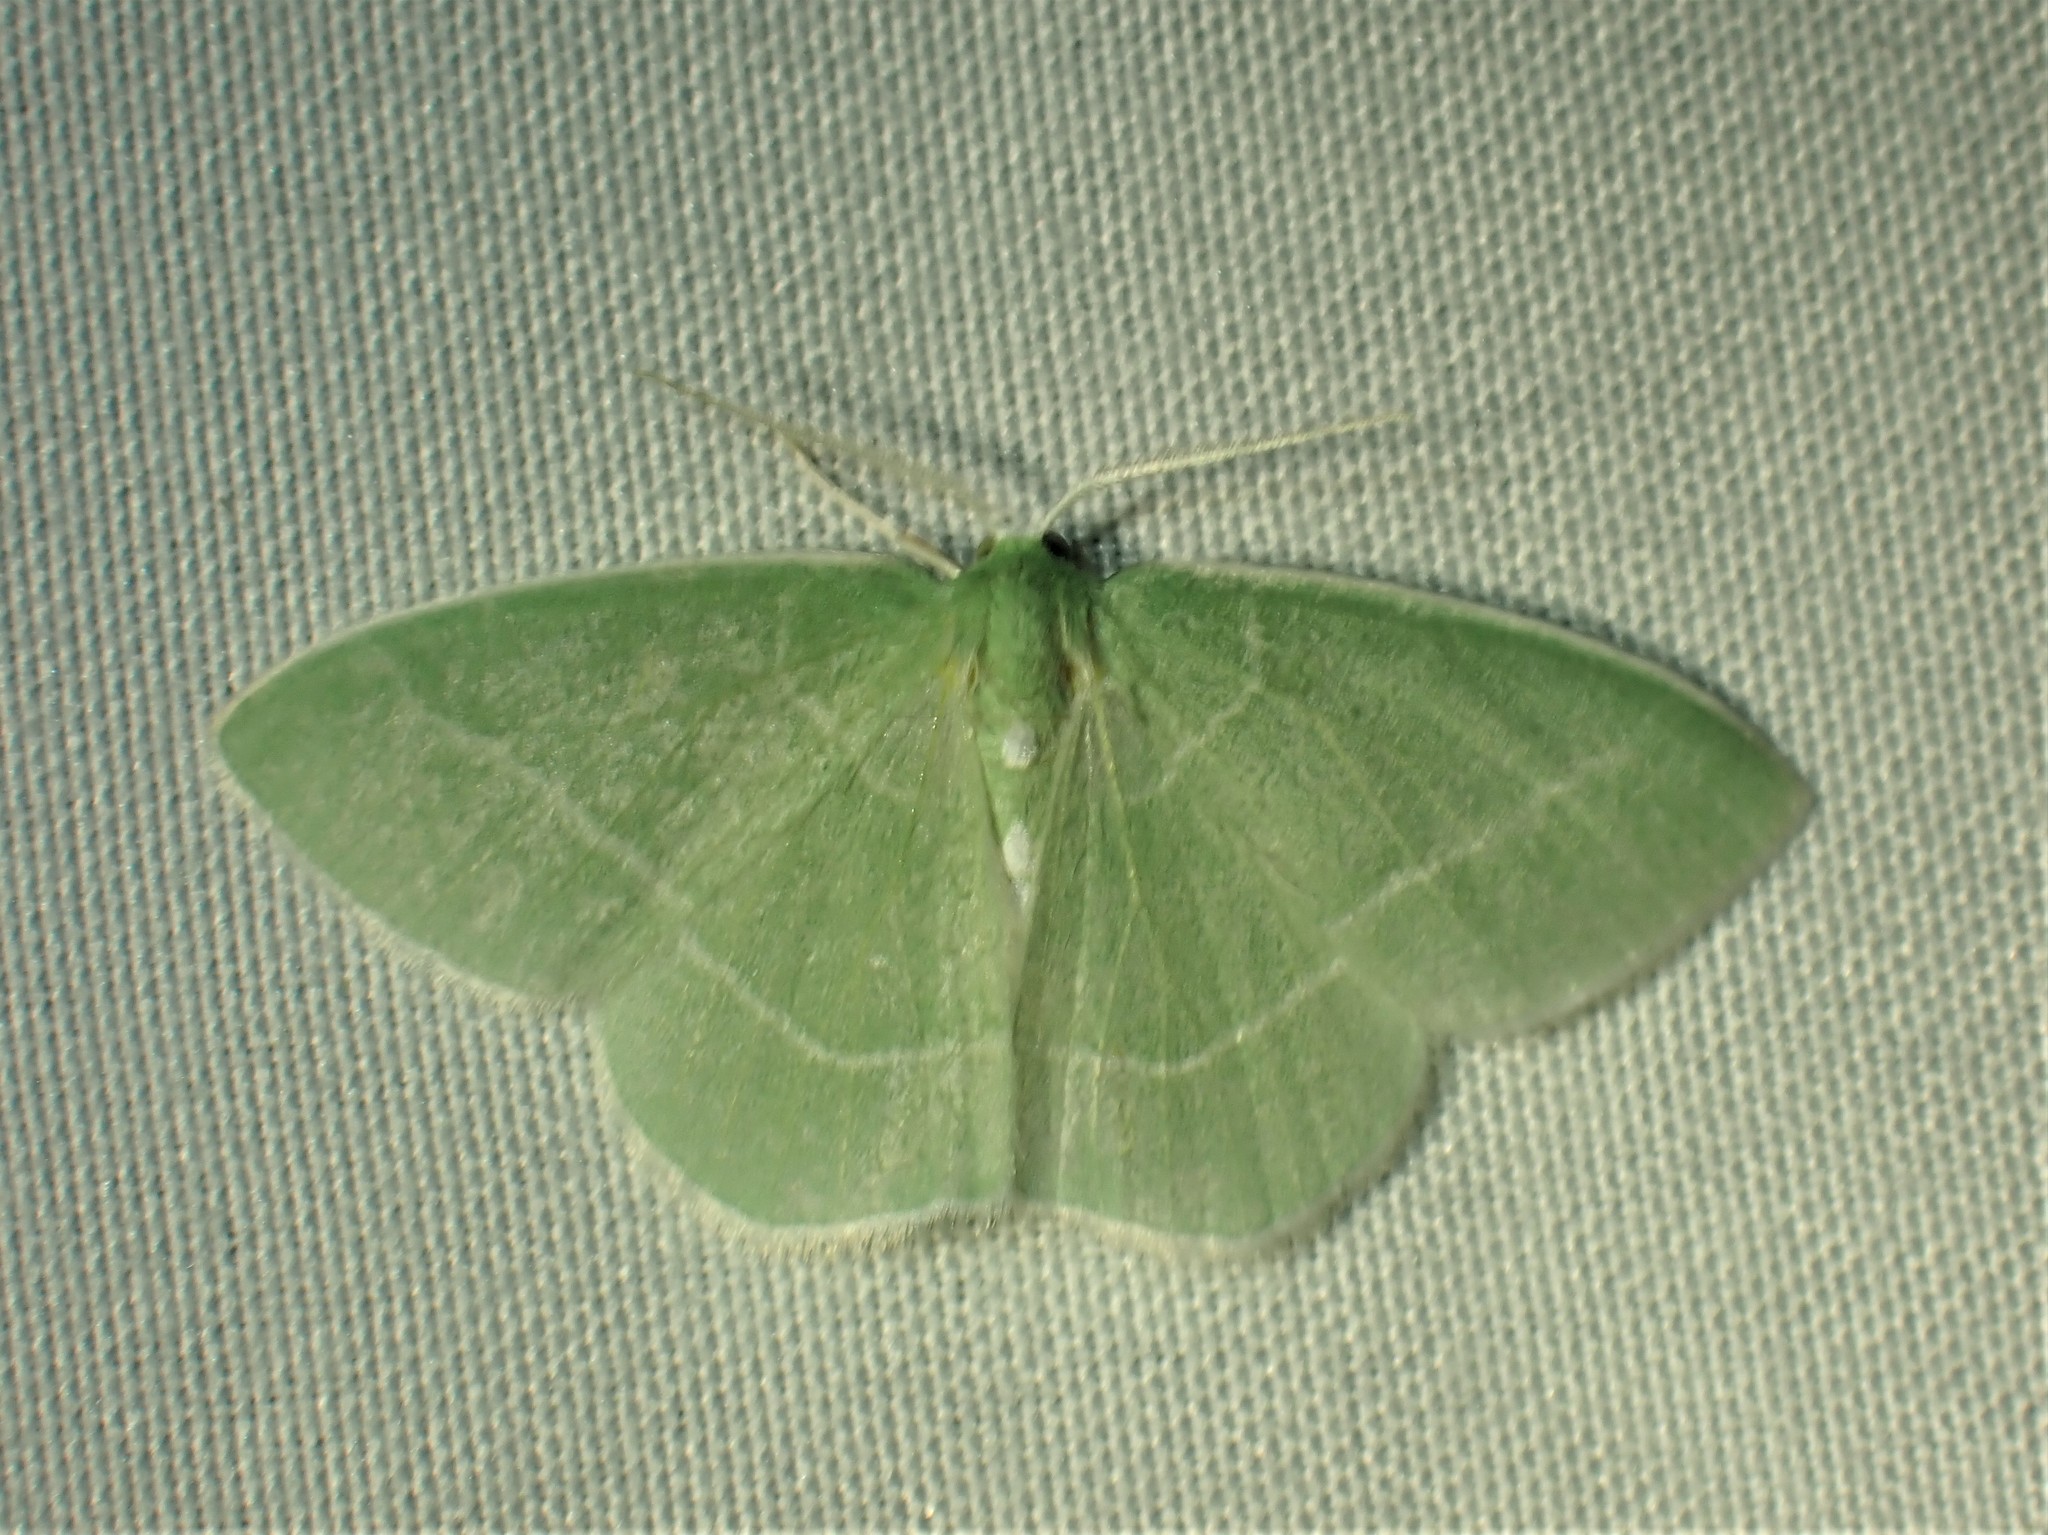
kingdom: Animalia
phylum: Arthropoda
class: Insecta
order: Lepidoptera
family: Geometridae
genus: Nemoria
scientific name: Nemoria mimosaria
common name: White-fringed emerald
